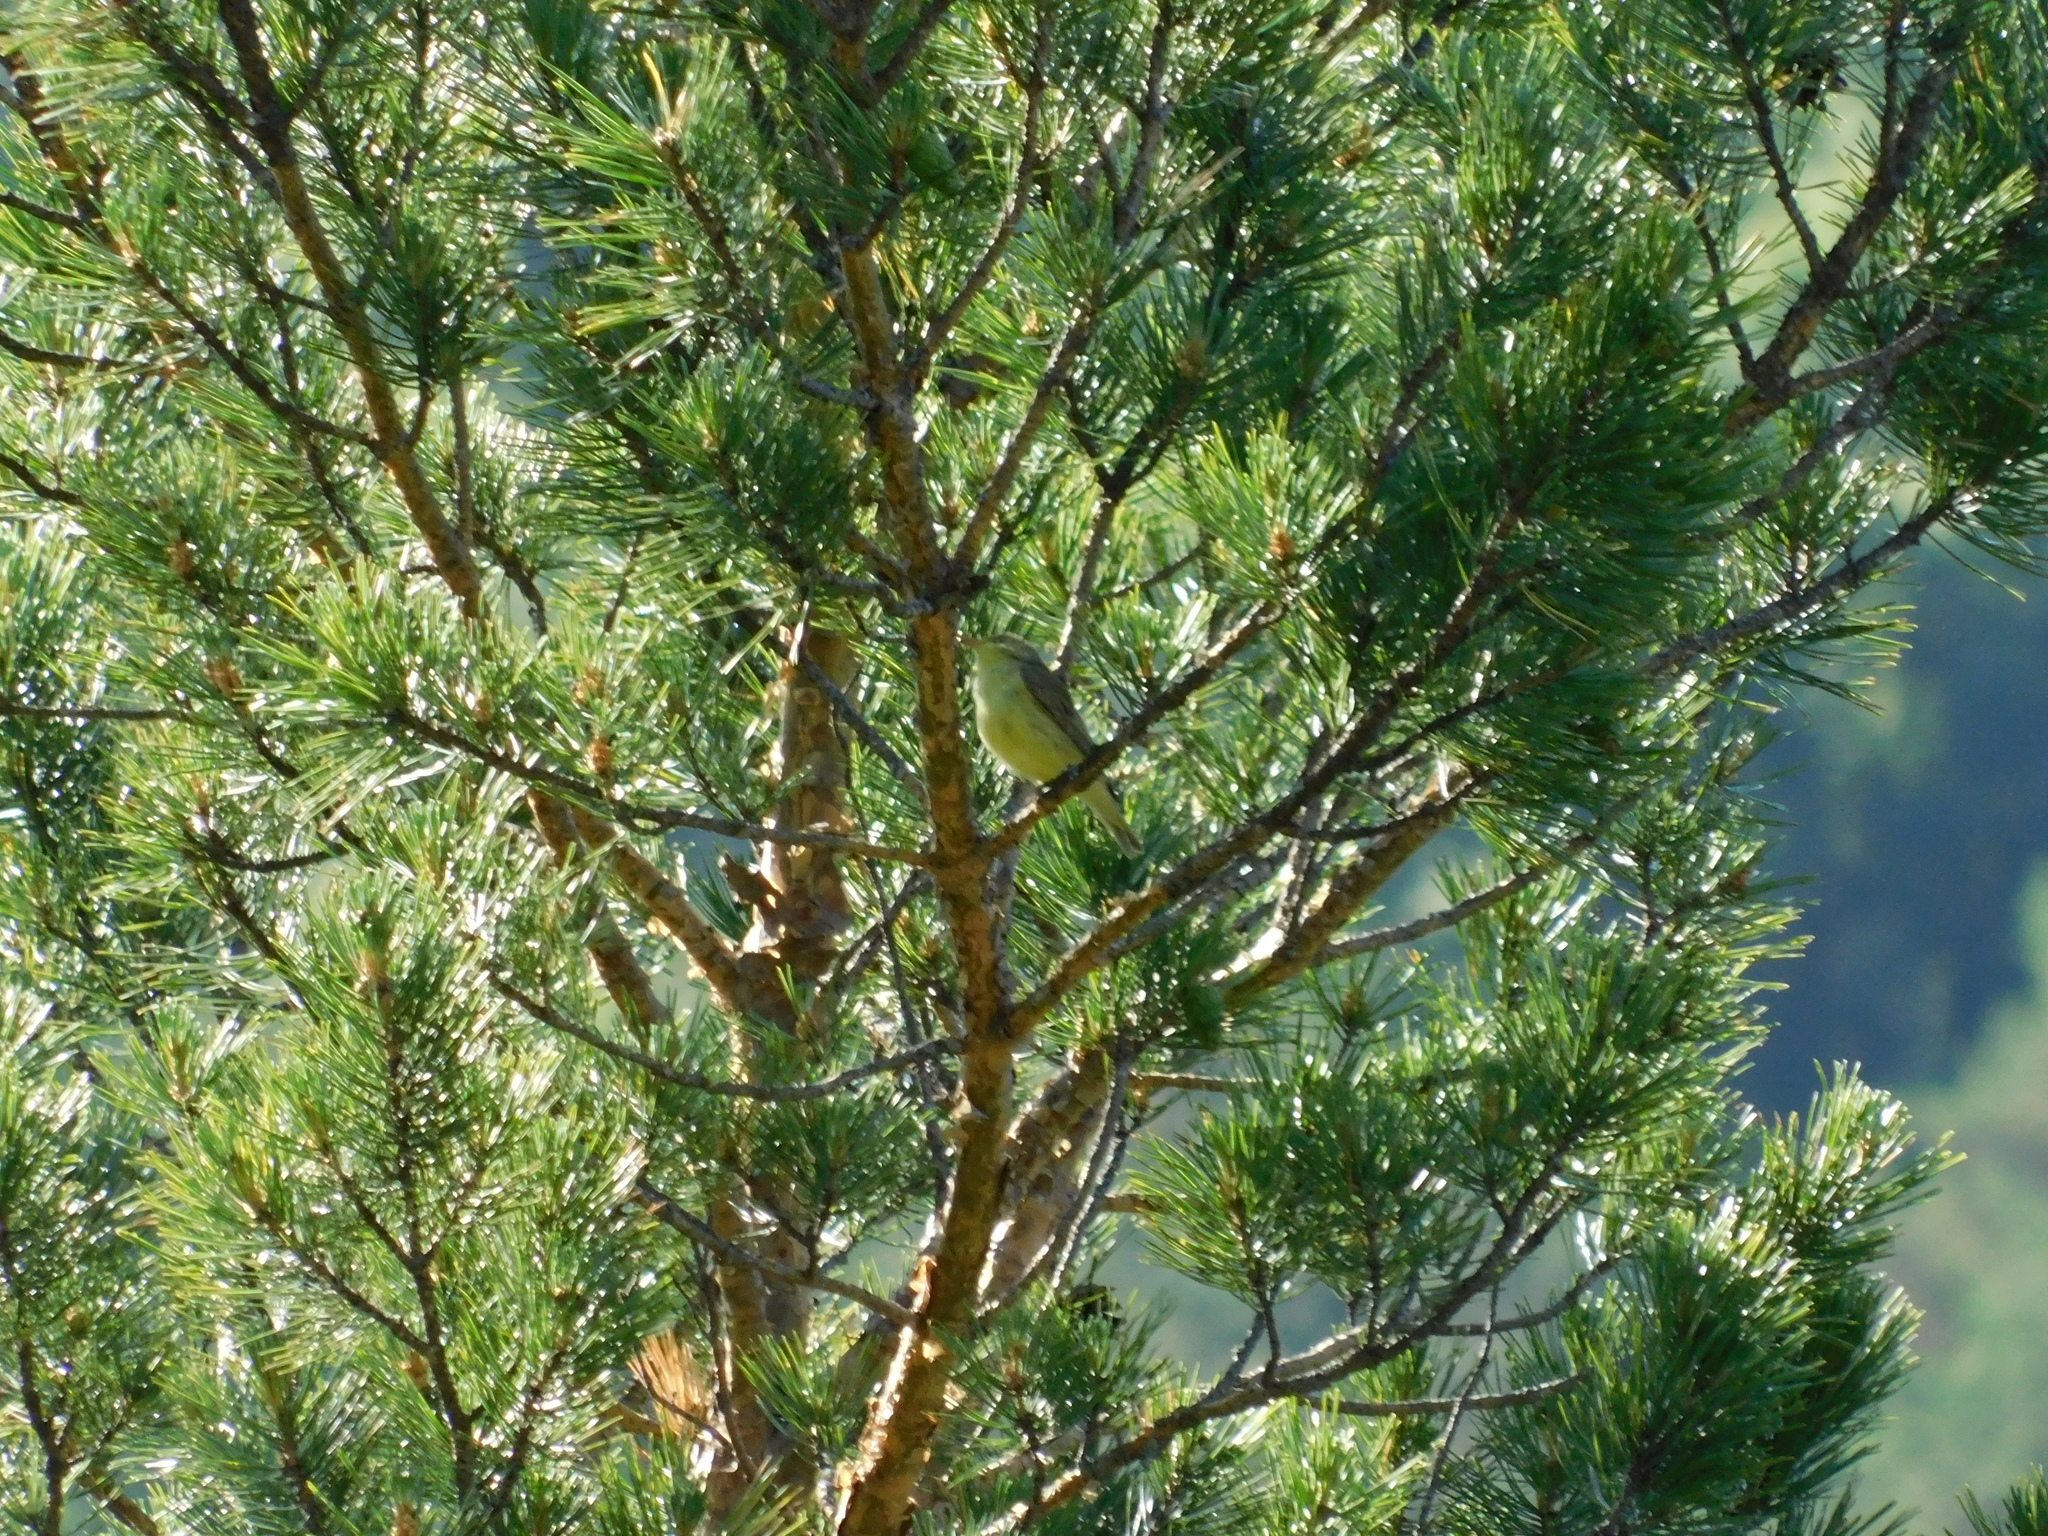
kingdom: Animalia
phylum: Chordata
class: Aves
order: Passeriformes
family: Acrocephalidae
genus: Hippolais
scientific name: Hippolais icterina
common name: Icterine warbler
